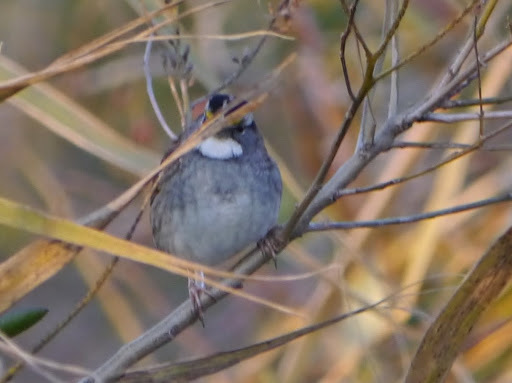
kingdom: Animalia
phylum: Chordata
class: Aves
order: Passeriformes
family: Passerellidae
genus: Zonotrichia
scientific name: Zonotrichia albicollis
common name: White-throated sparrow
